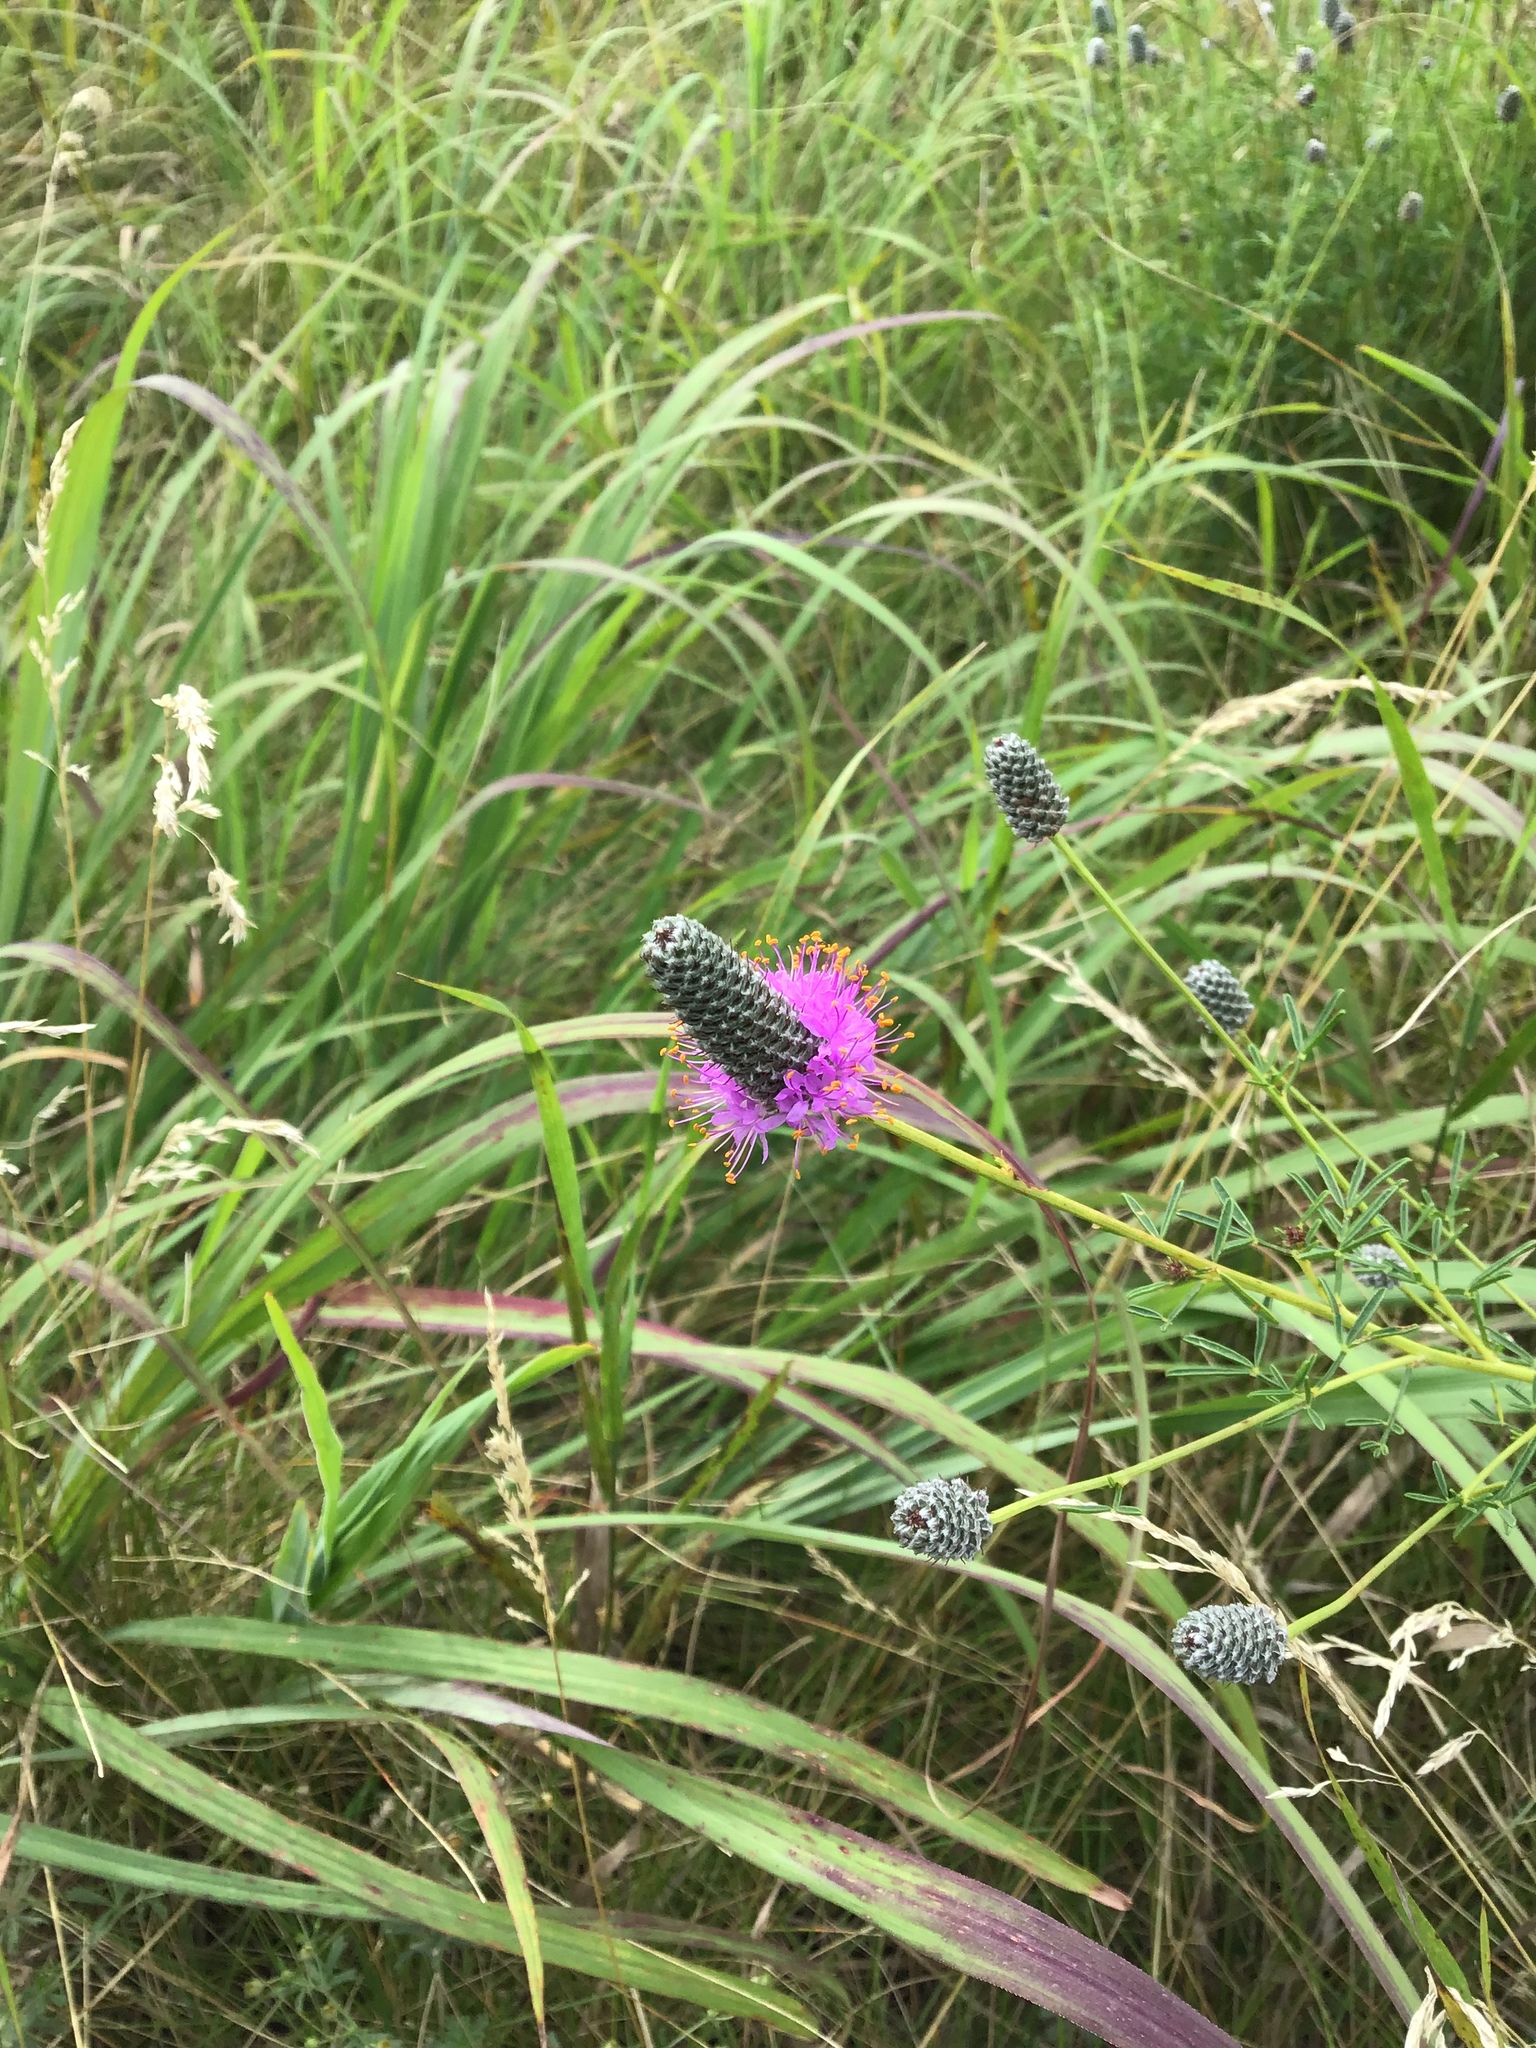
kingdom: Plantae
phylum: Tracheophyta
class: Magnoliopsida
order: Fabales
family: Fabaceae
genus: Dalea
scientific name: Dalea purpurea
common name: Purple prairie-clover
